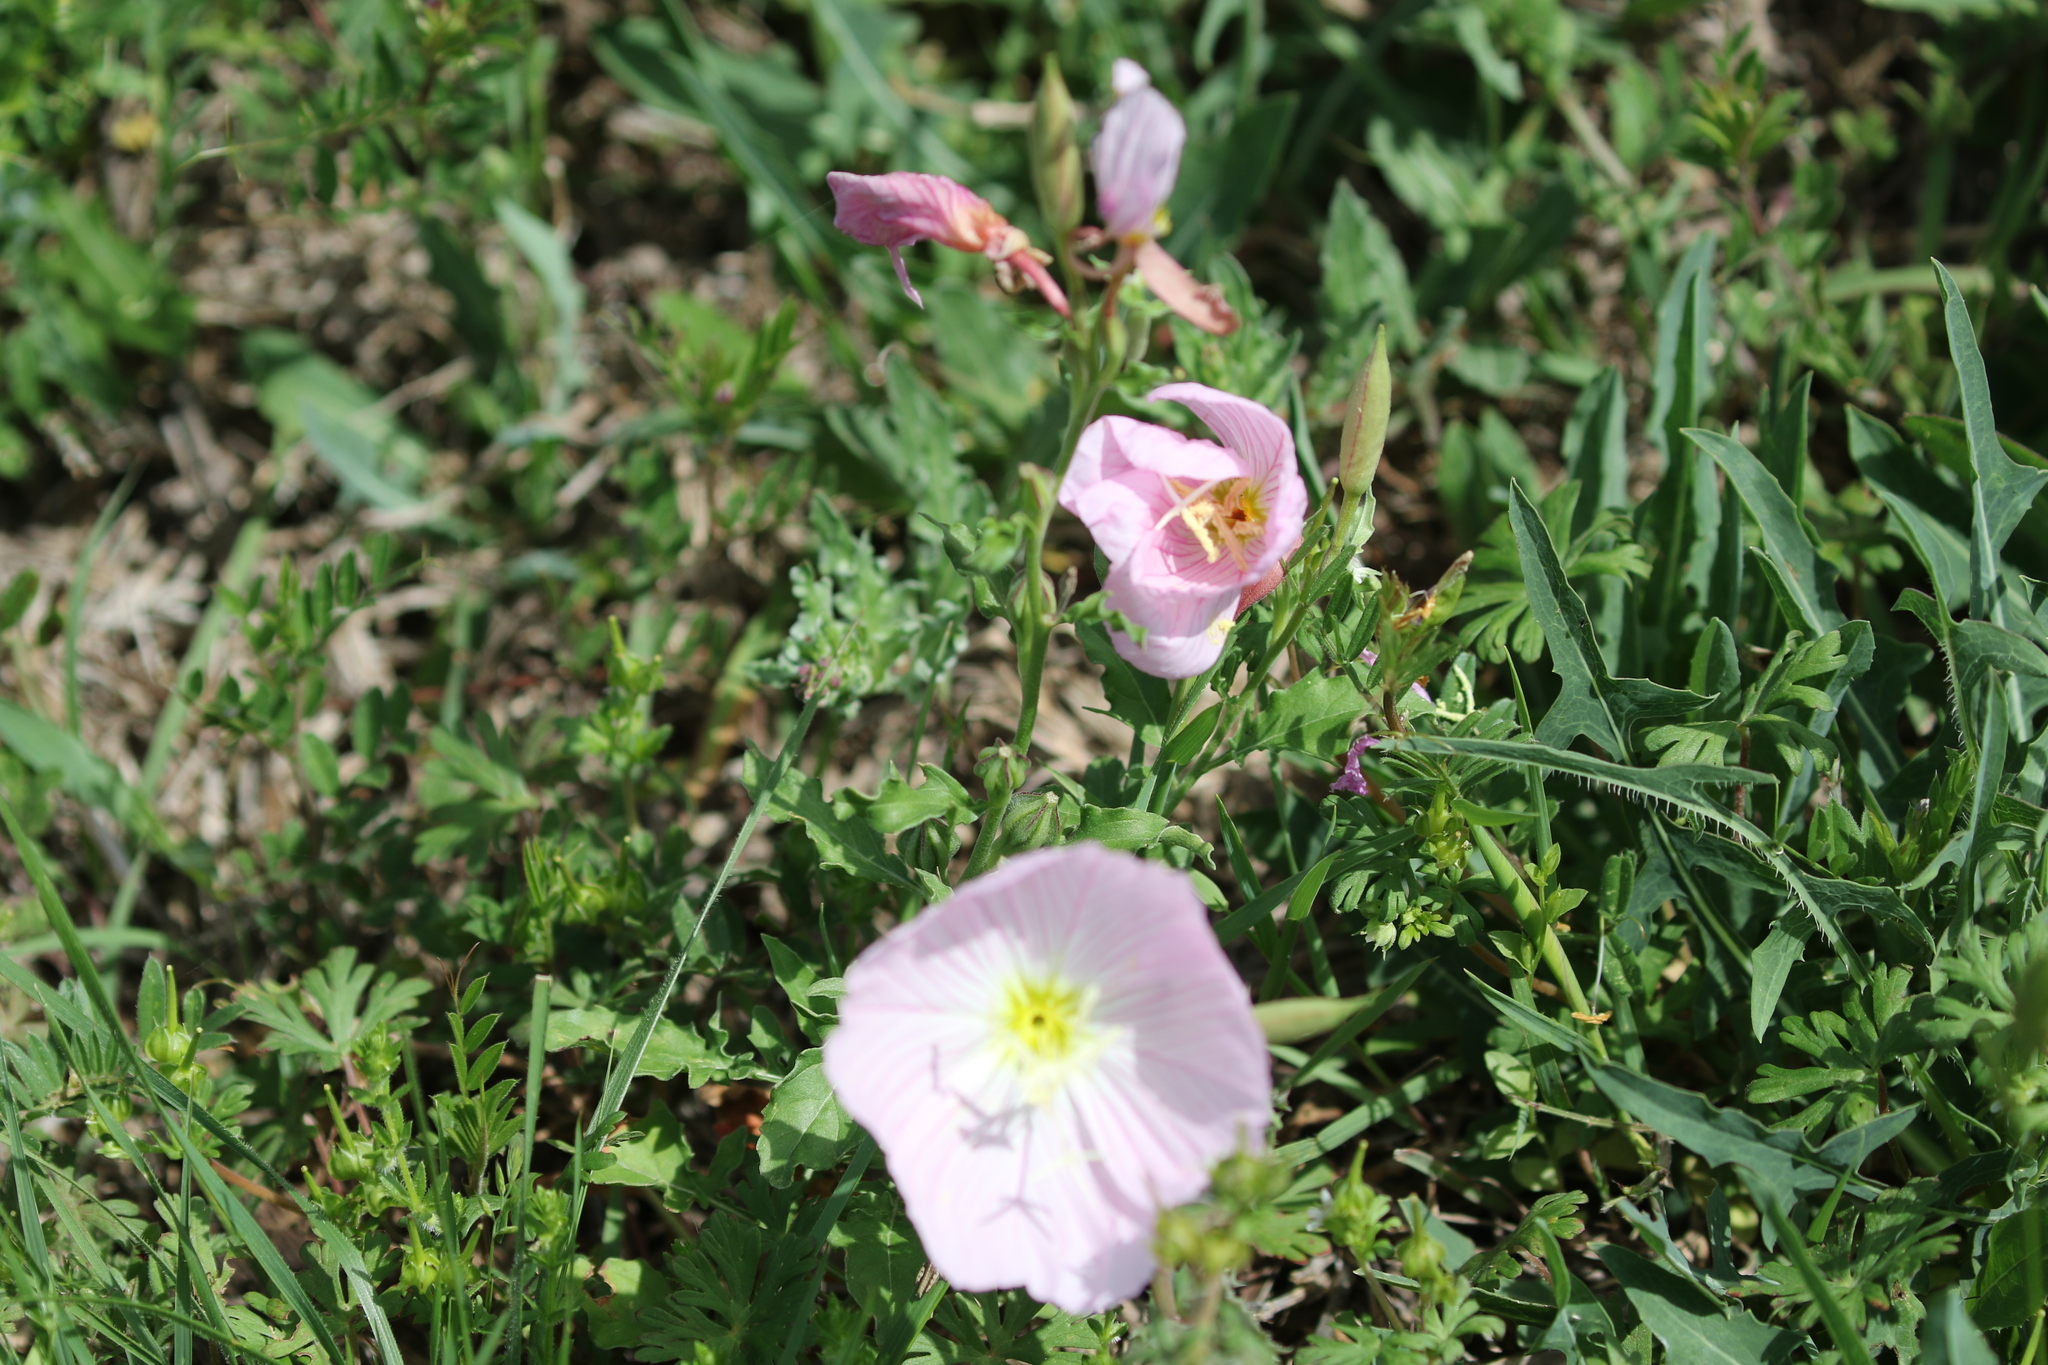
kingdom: Plantae
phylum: Tracheophyta
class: Magnoliopsida
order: Myrtales
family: Onagraceae
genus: Oenothera
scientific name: Oenothera speciosa
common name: White evening-primrose
